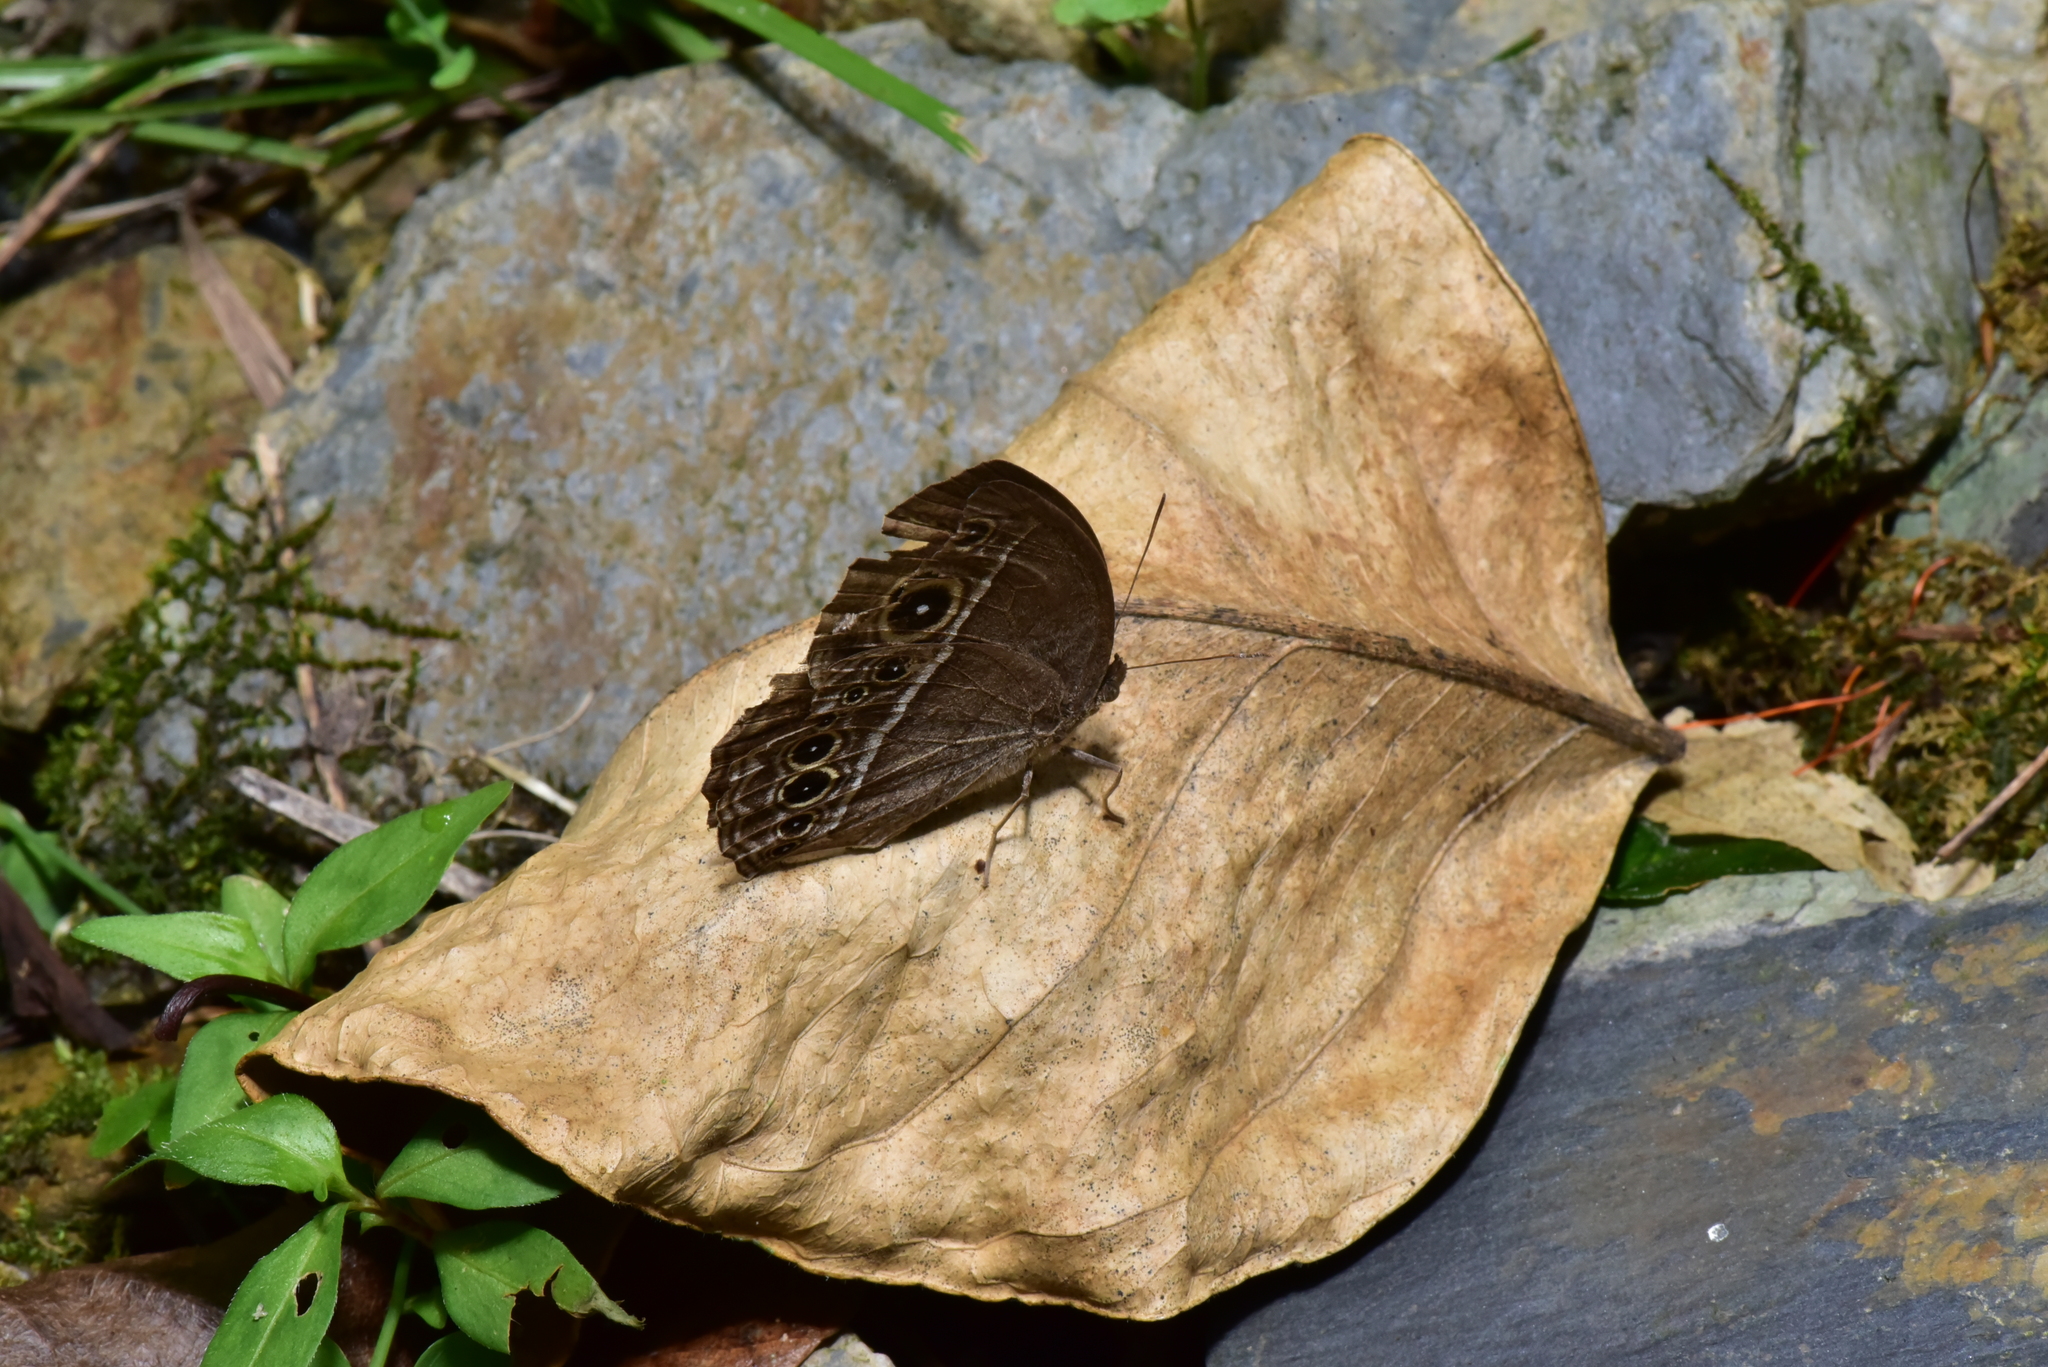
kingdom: Animalia
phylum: Arthropoda
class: Insecta
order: Lepidoptera
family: Nymphalidae
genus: Mycalesis
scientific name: Mycalesis horsfieldii
